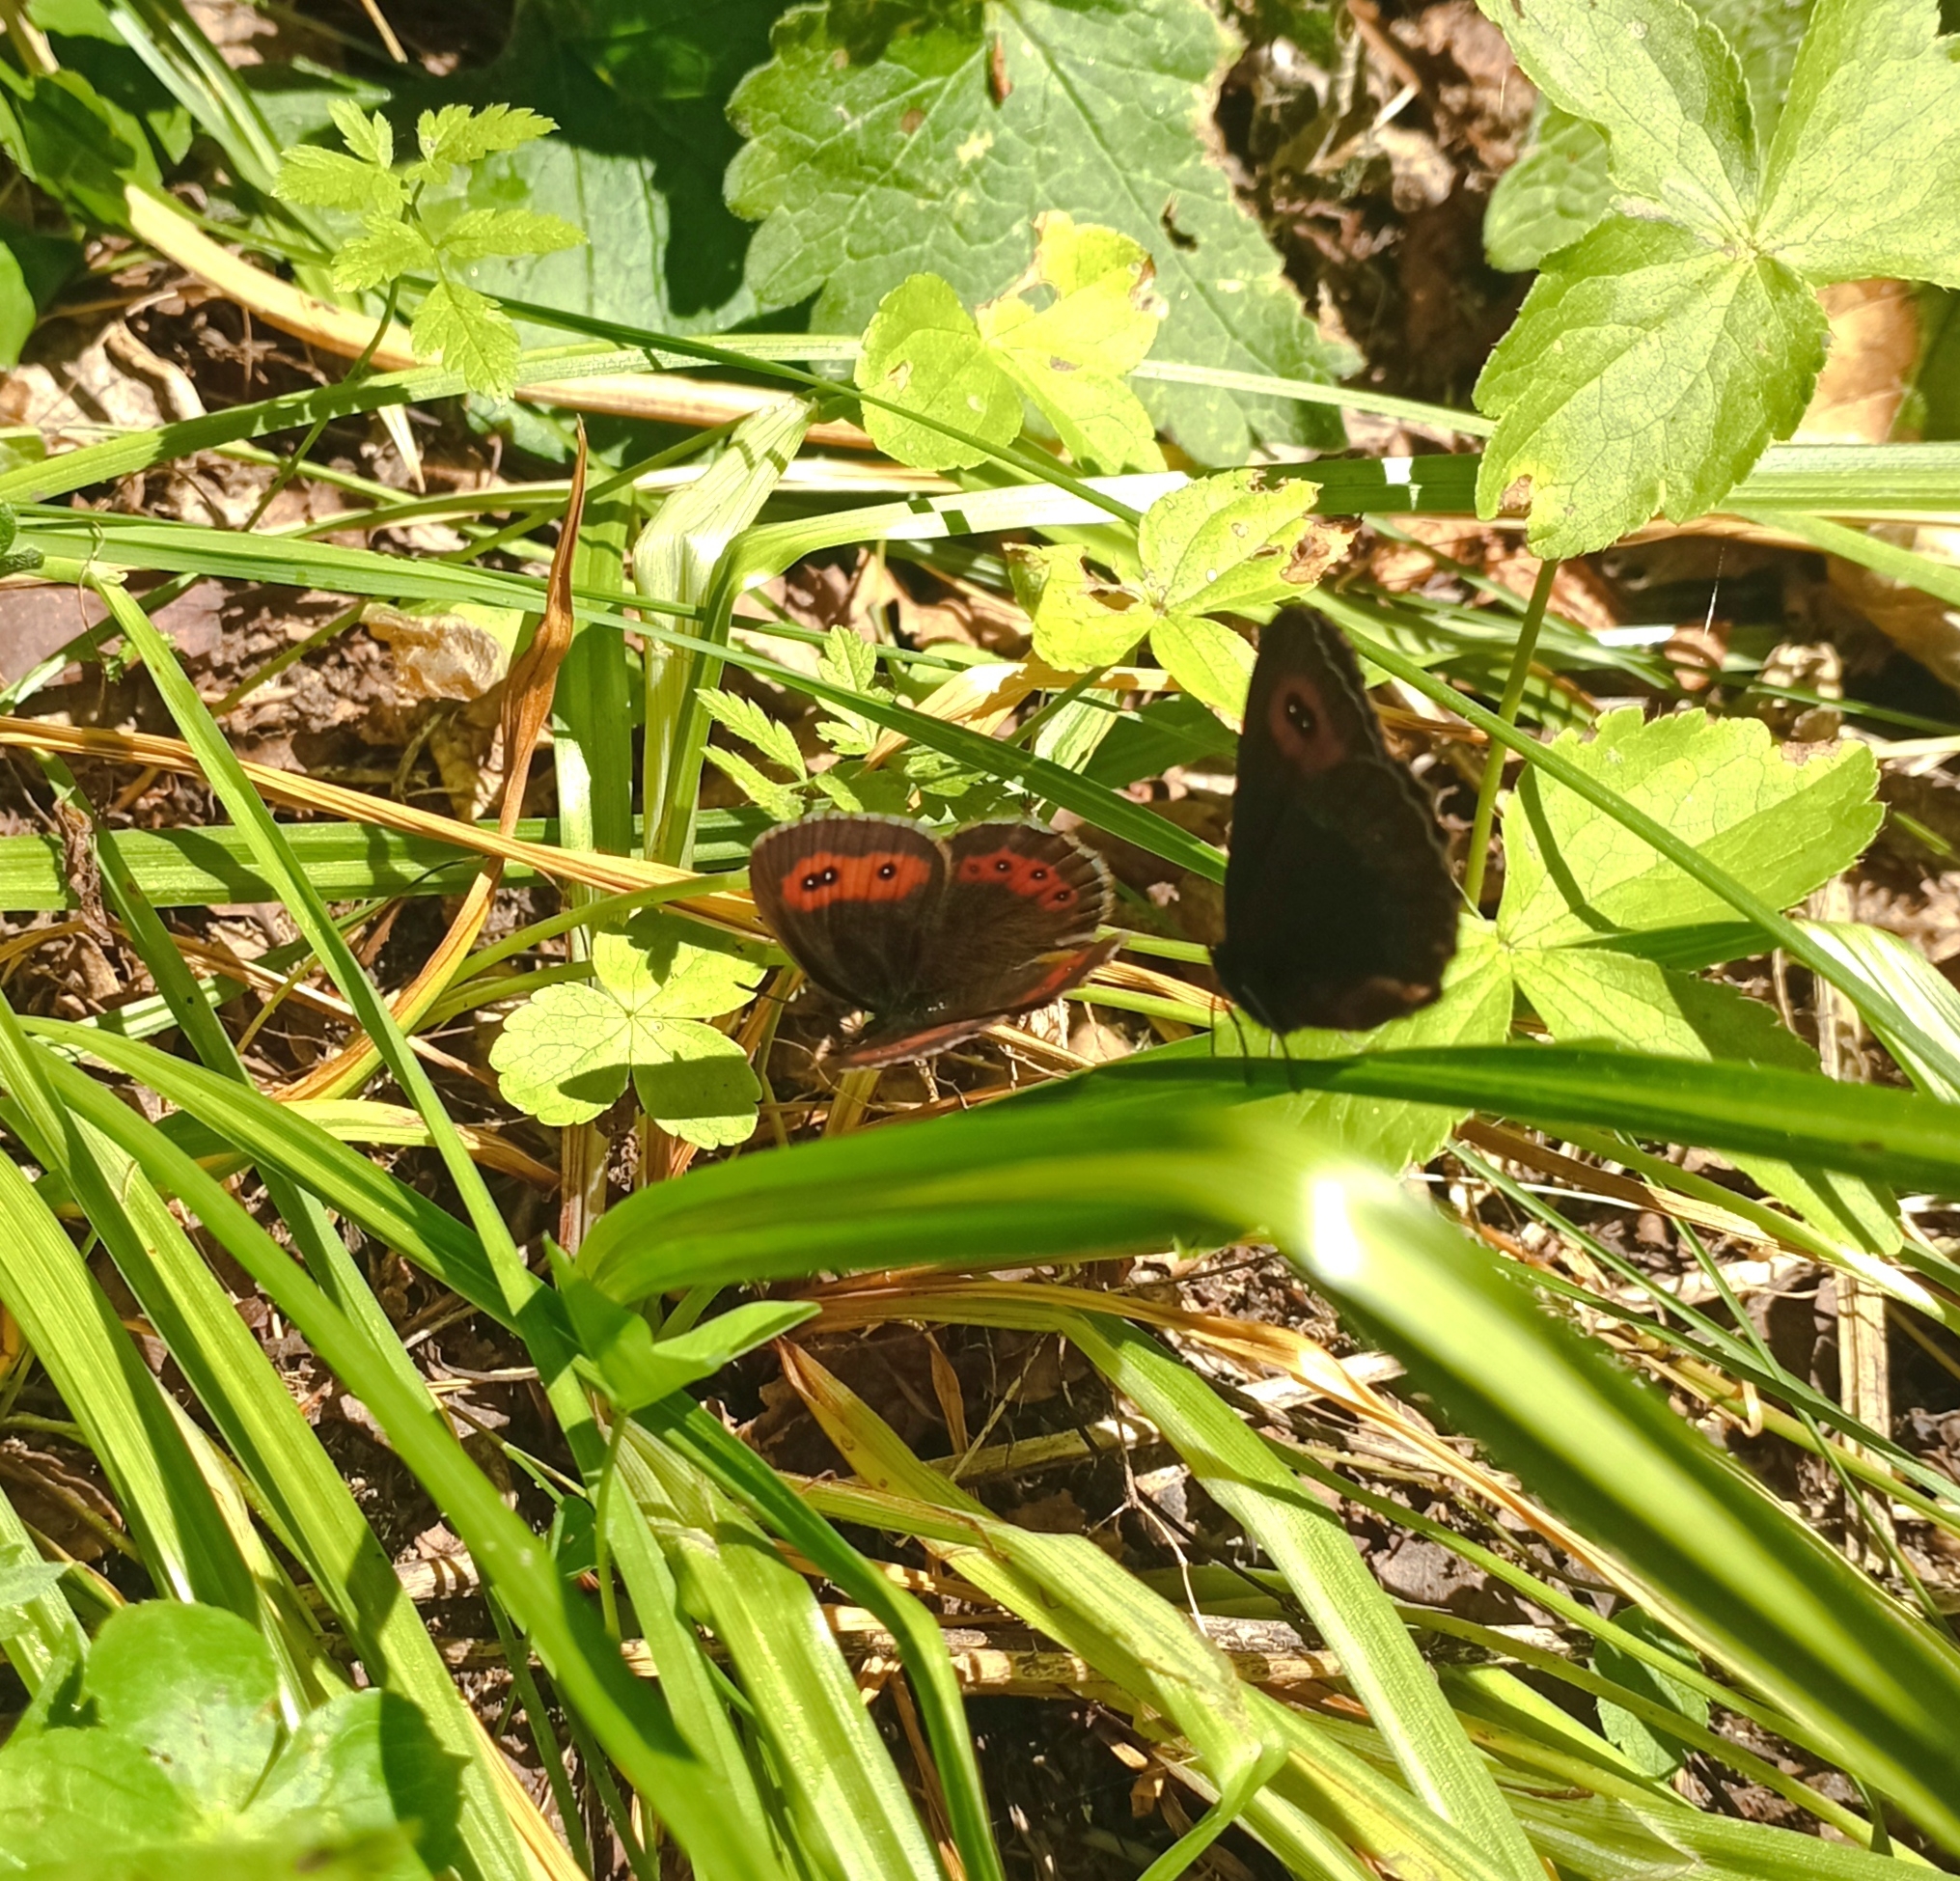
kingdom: Animalia
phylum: Arthropoda
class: Insecta
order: Lepidoptera
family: Nymphalidae
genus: Erebia
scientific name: Erebia aethiops
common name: Scotch argus
